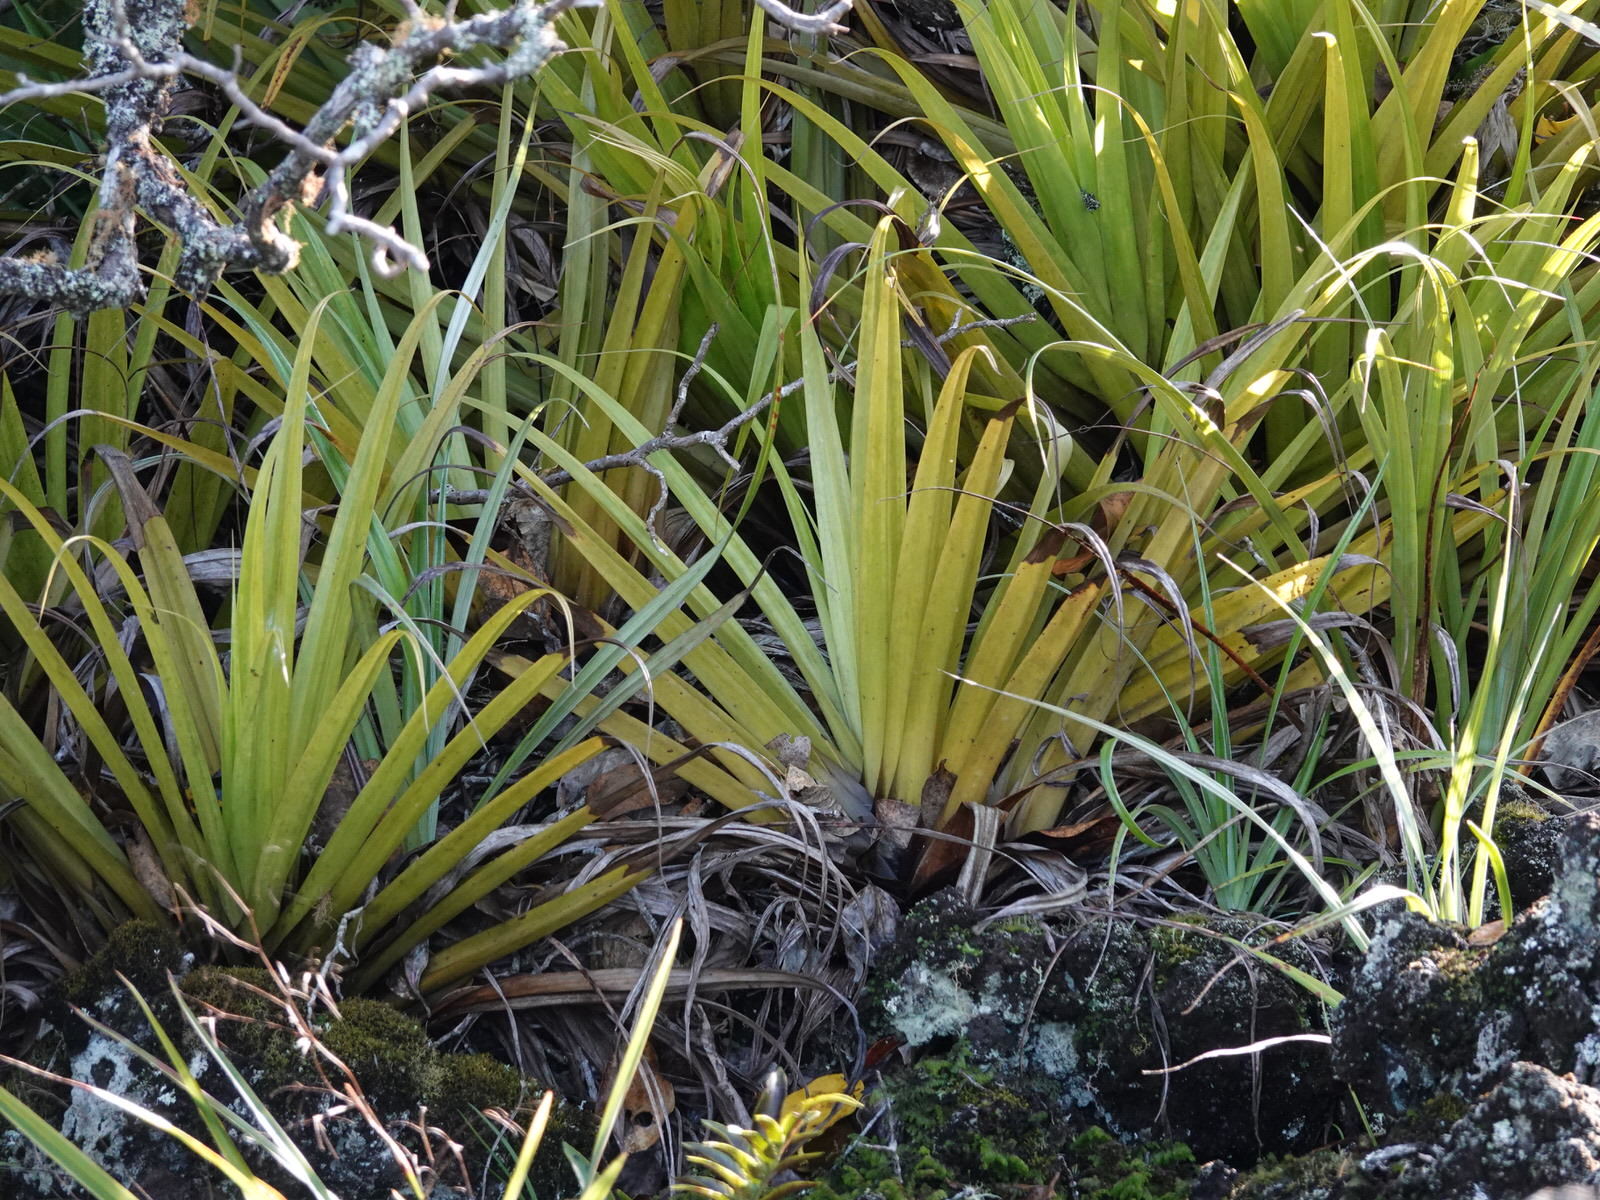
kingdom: Plantae
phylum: Tracheophyta
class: Liliopsida
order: Asparagales
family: Asteliaceae
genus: Astelia
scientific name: Astelia hastata
